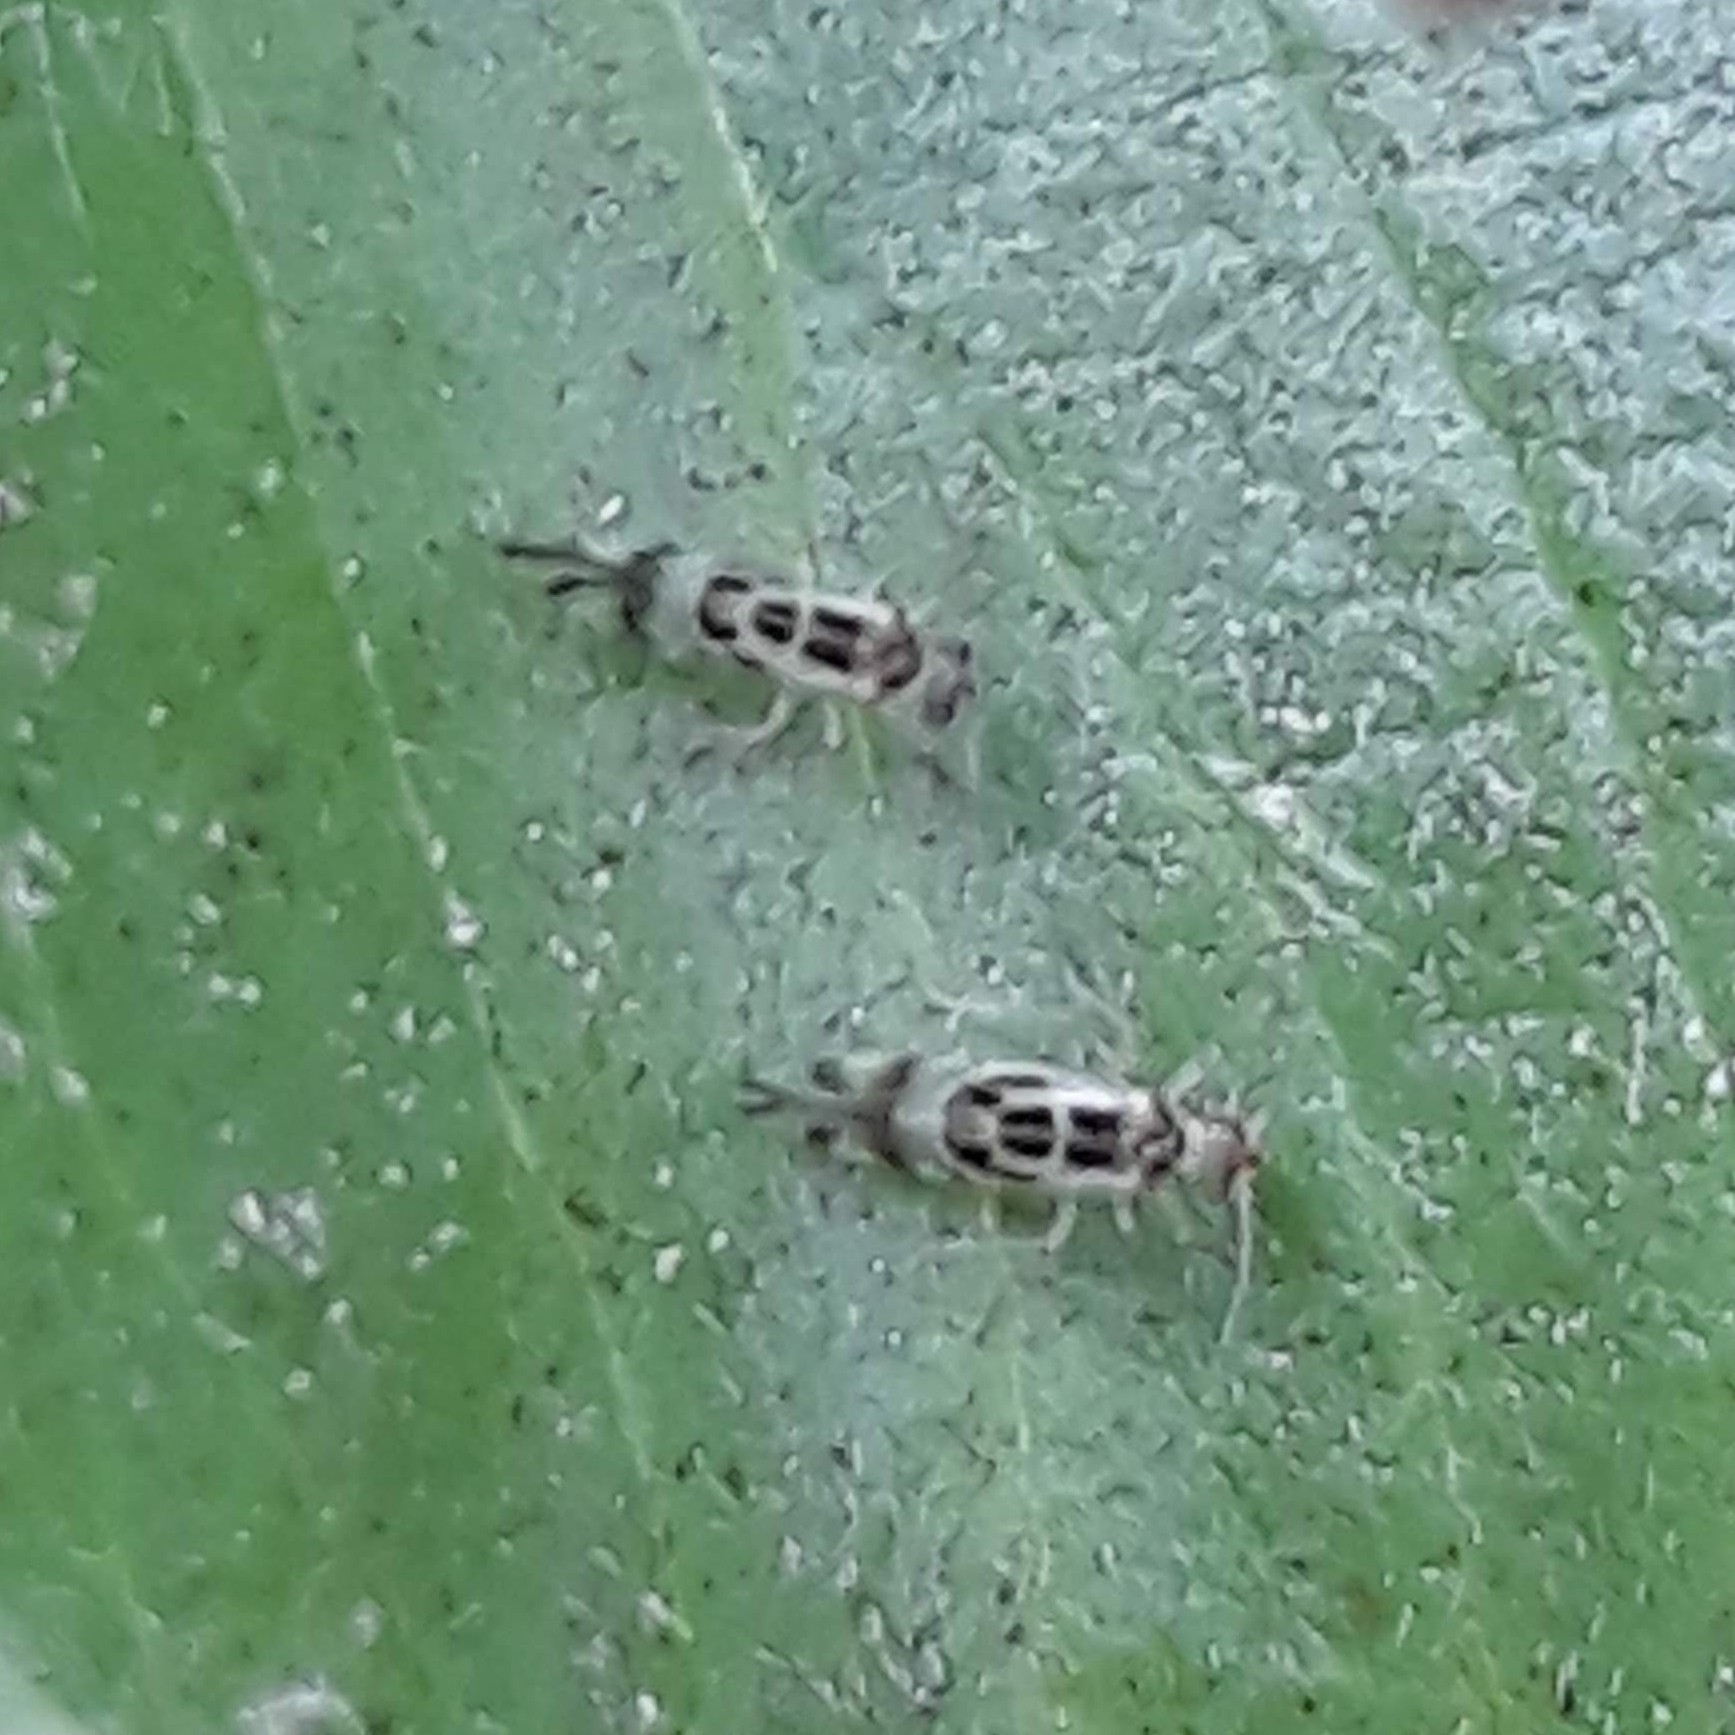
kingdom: Animalia
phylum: Arthropoda
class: Insecta
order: Psocodea
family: Stenopsocidae
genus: Graphopsocus
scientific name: Graphopsocus cruciatus
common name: Lizard bark louse
